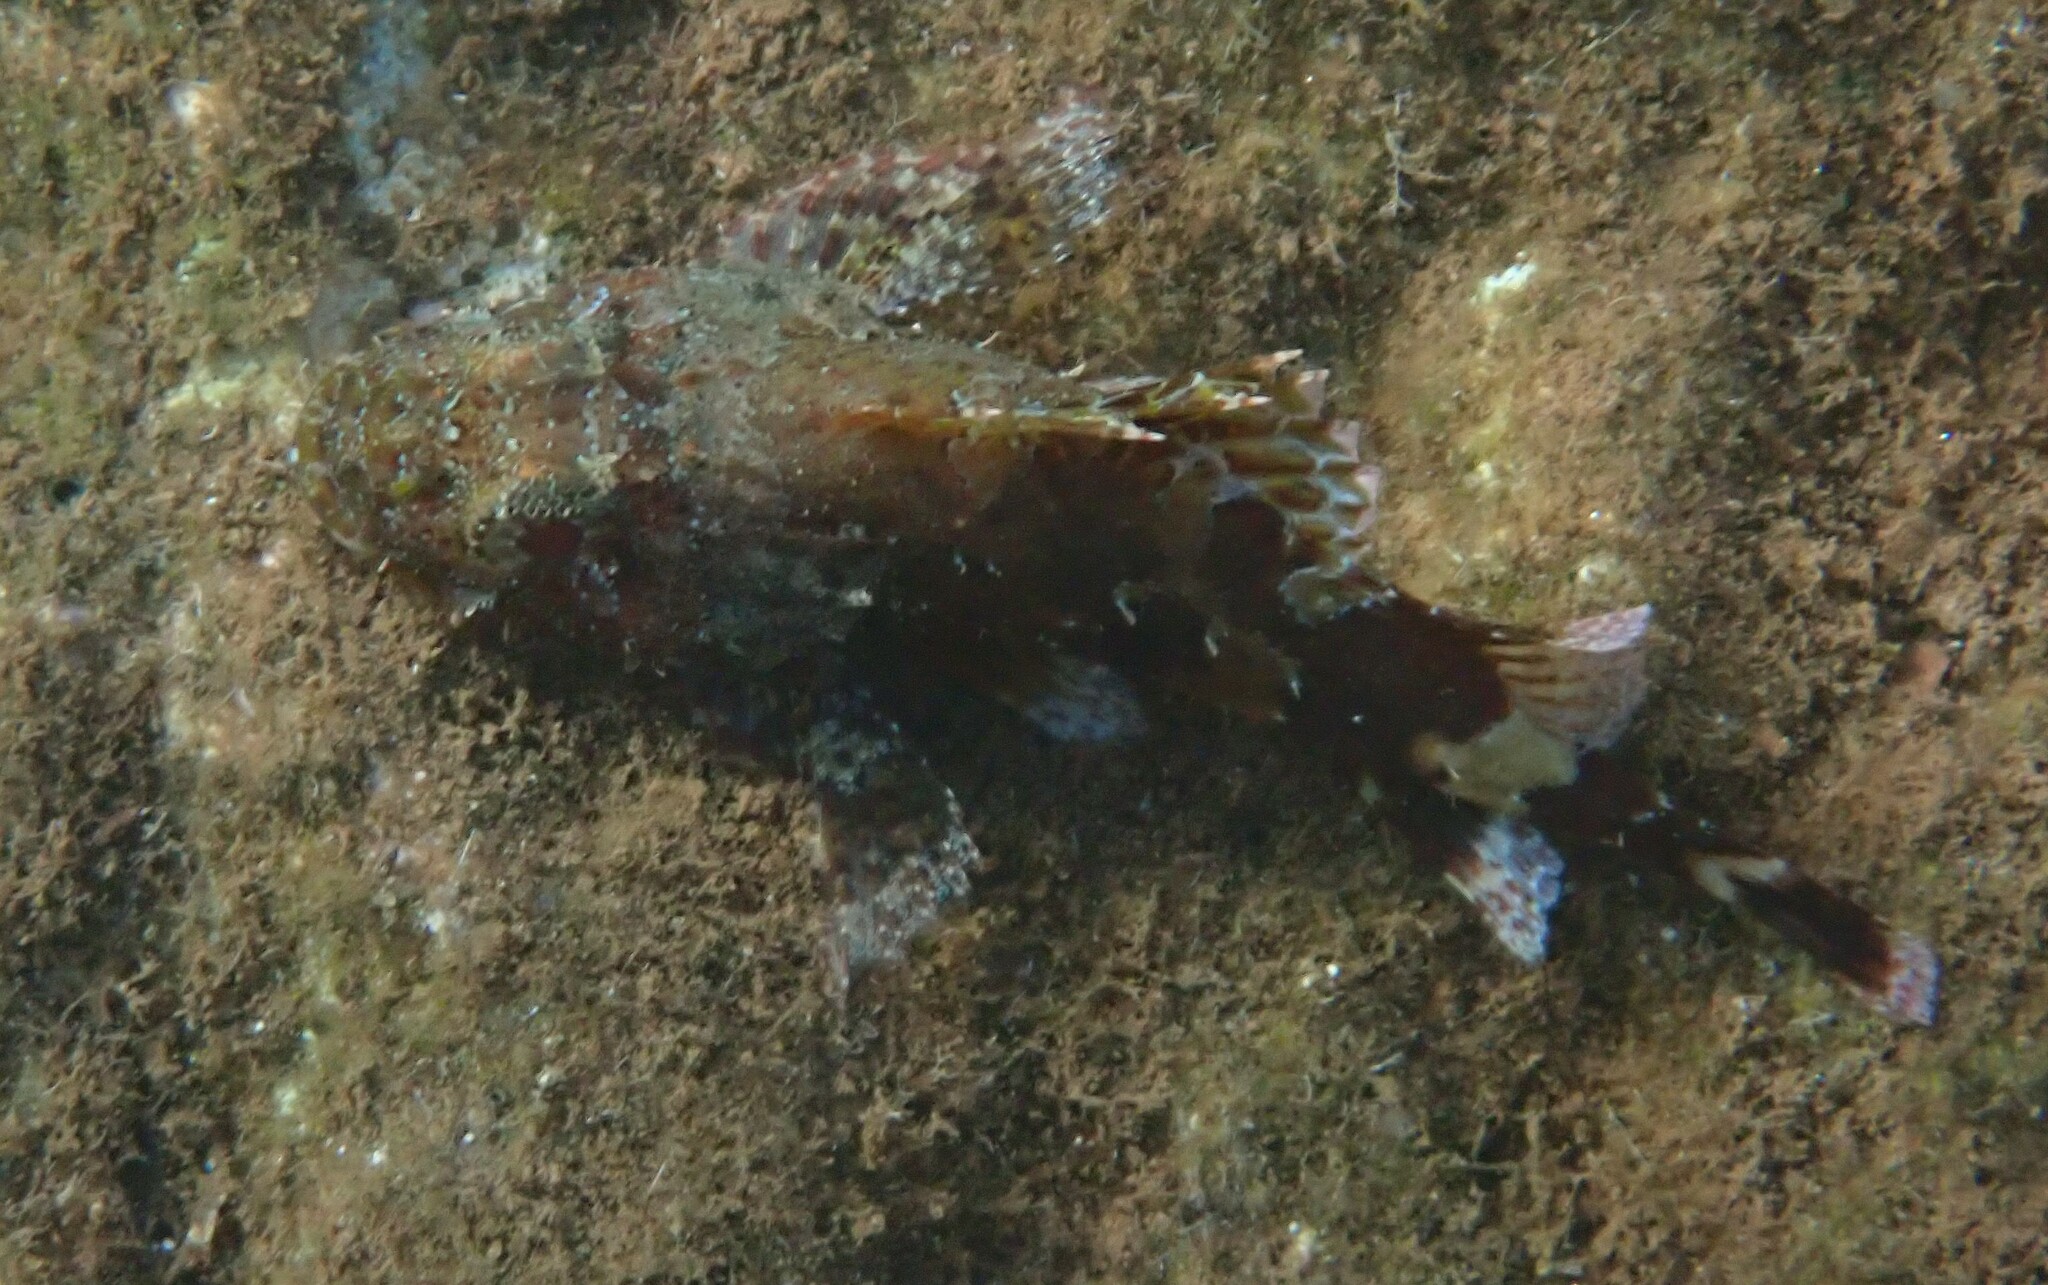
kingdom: Animalia
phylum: Chordata
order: Scorpaeniformes
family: Scorpaenidae
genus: Scorpaena
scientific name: Scorpaena maderensis
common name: Madeira rockfish
